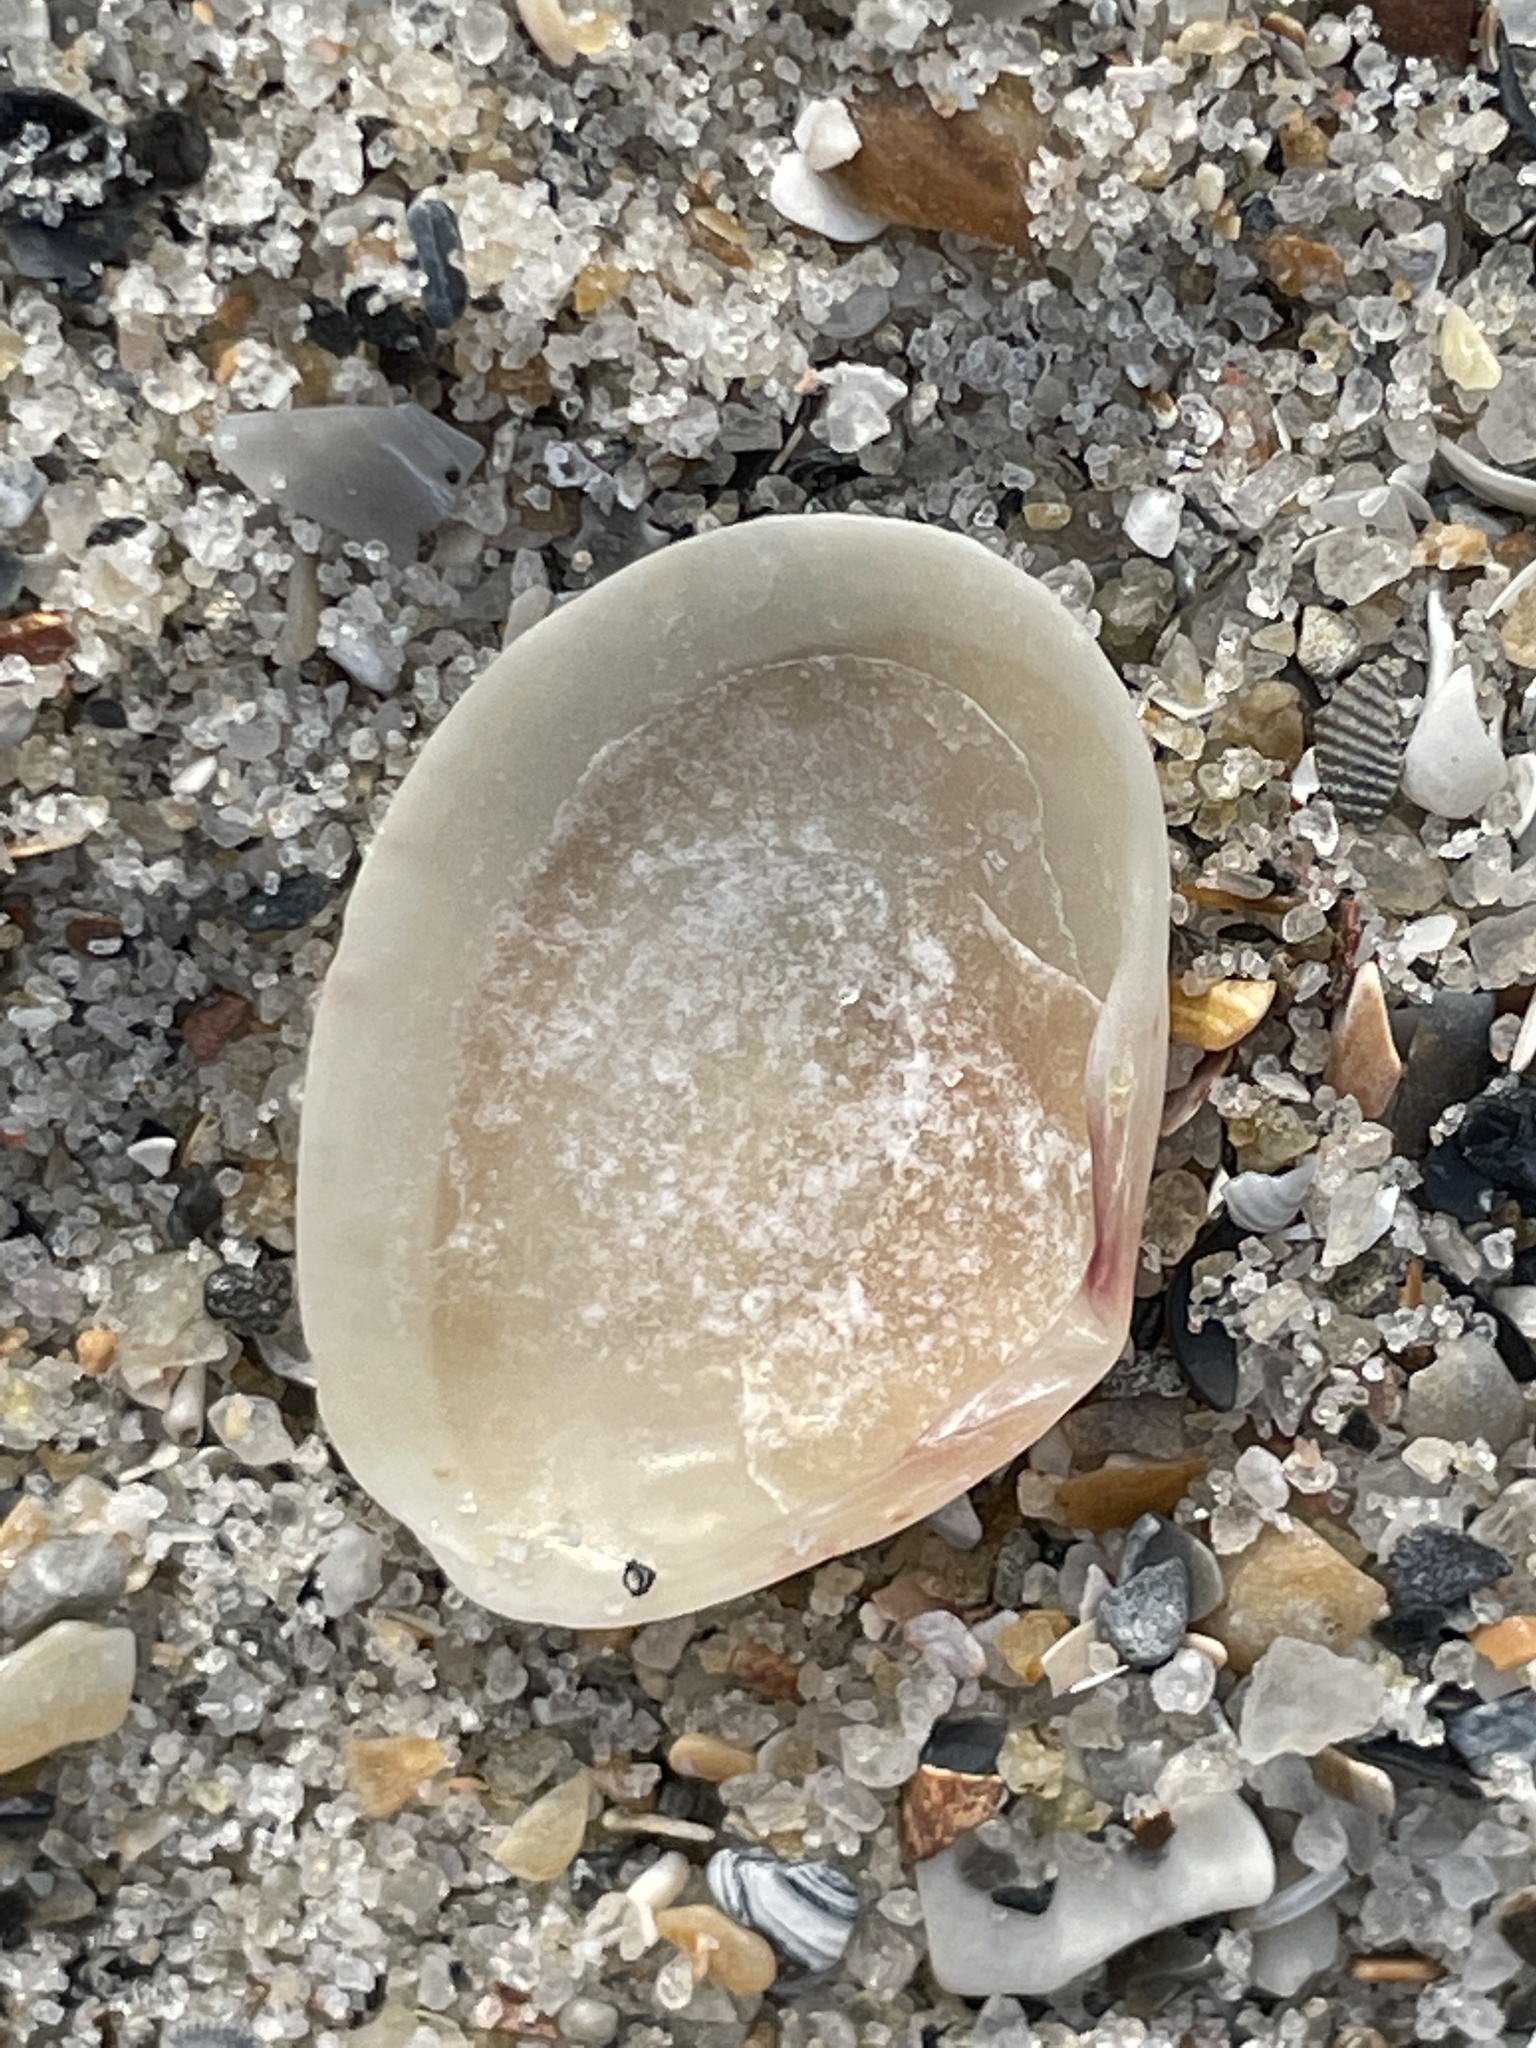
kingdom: Animalia
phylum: Mollusca
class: Bivalvia
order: Cardiida
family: Semelidae
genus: Semele
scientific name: Semele bellastriata
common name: Cancellate semele
